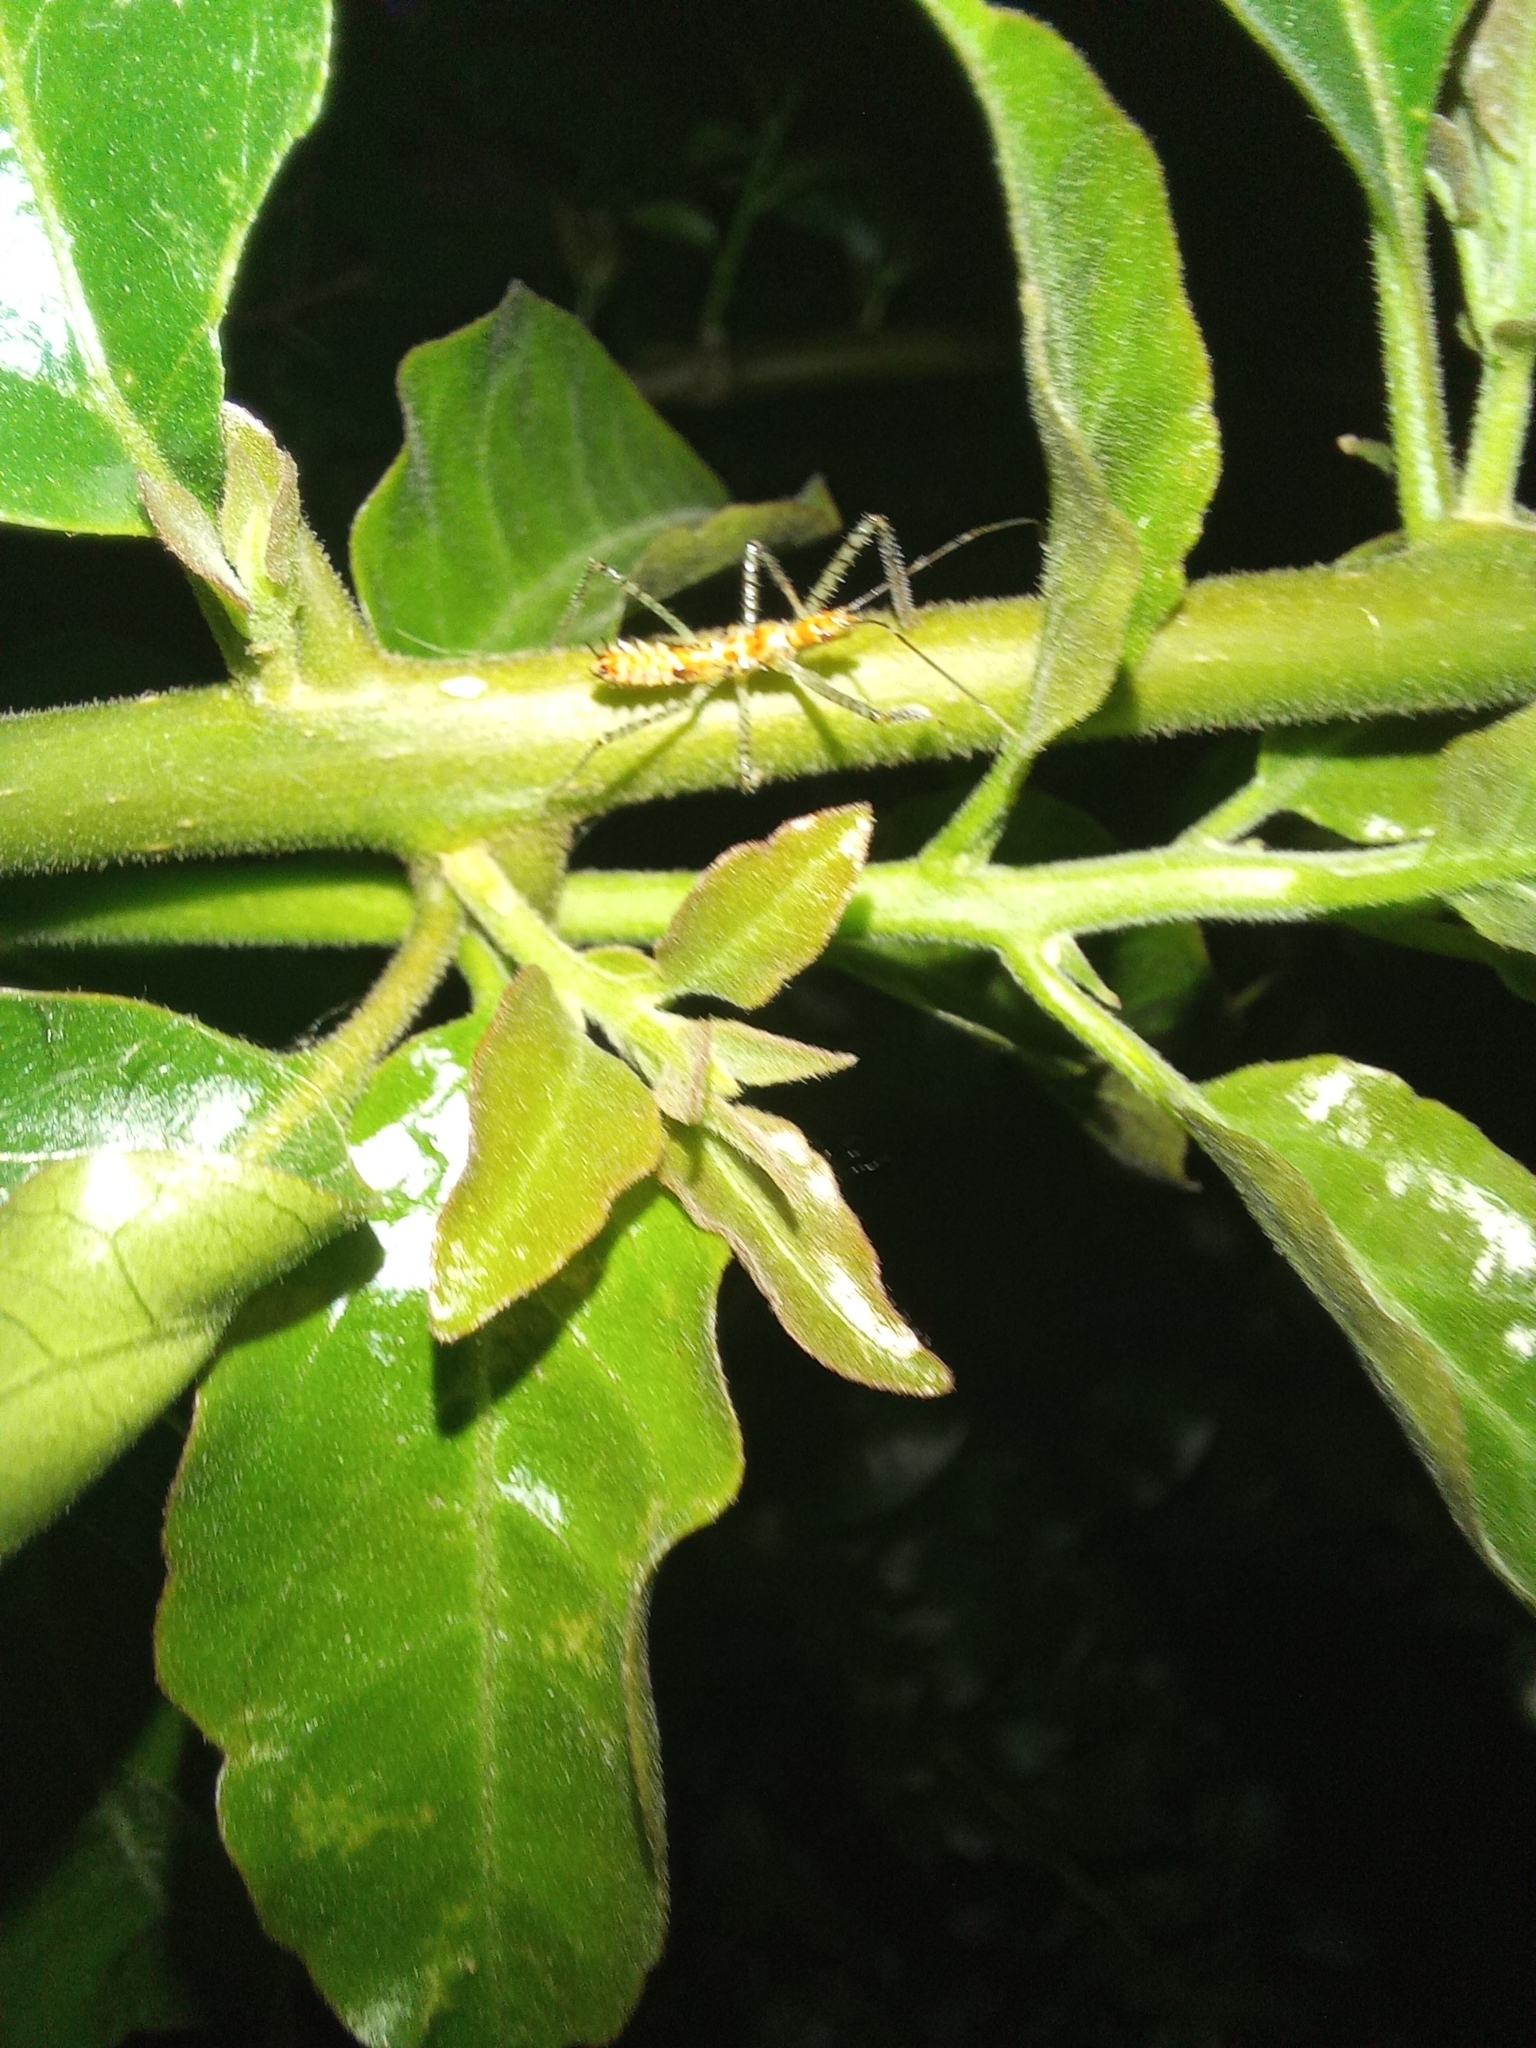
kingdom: Animalia
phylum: Arthropoda
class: Insecta
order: Hemiptera
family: Reduviidae
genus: Zelus
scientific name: Zelus renardii
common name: Assassin bug
